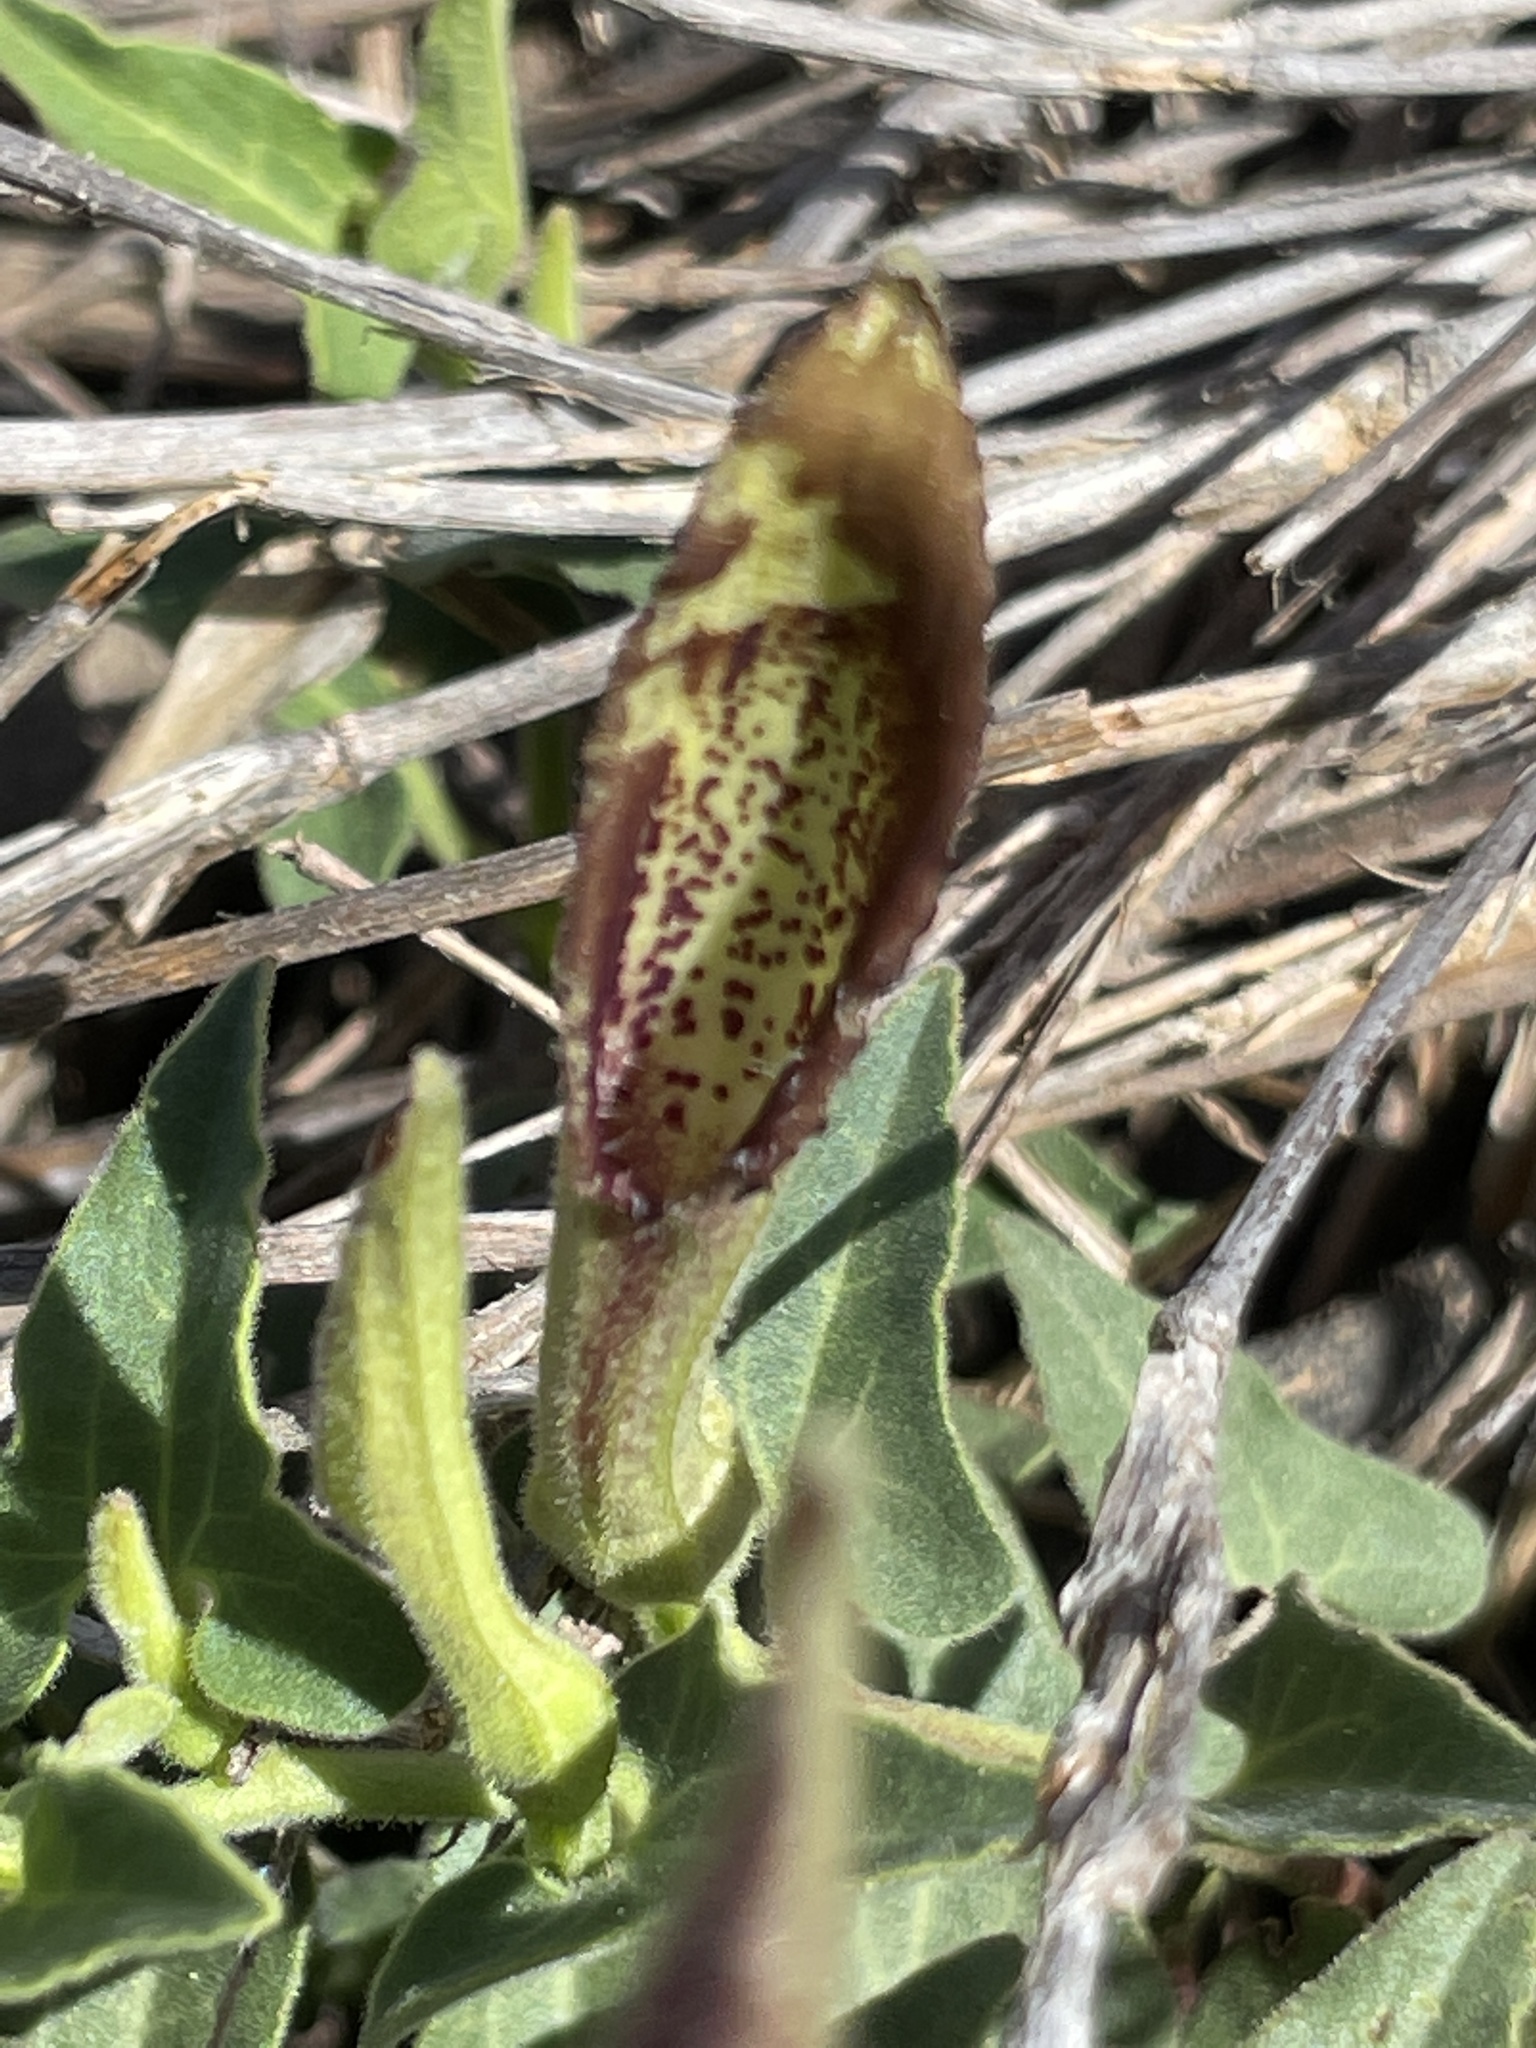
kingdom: Plantae
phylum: Tracheophyta
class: Magnoliopsida
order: Piperales
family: Aristolochiaceae
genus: Aristolochia
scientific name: Aristolochia watsonii
